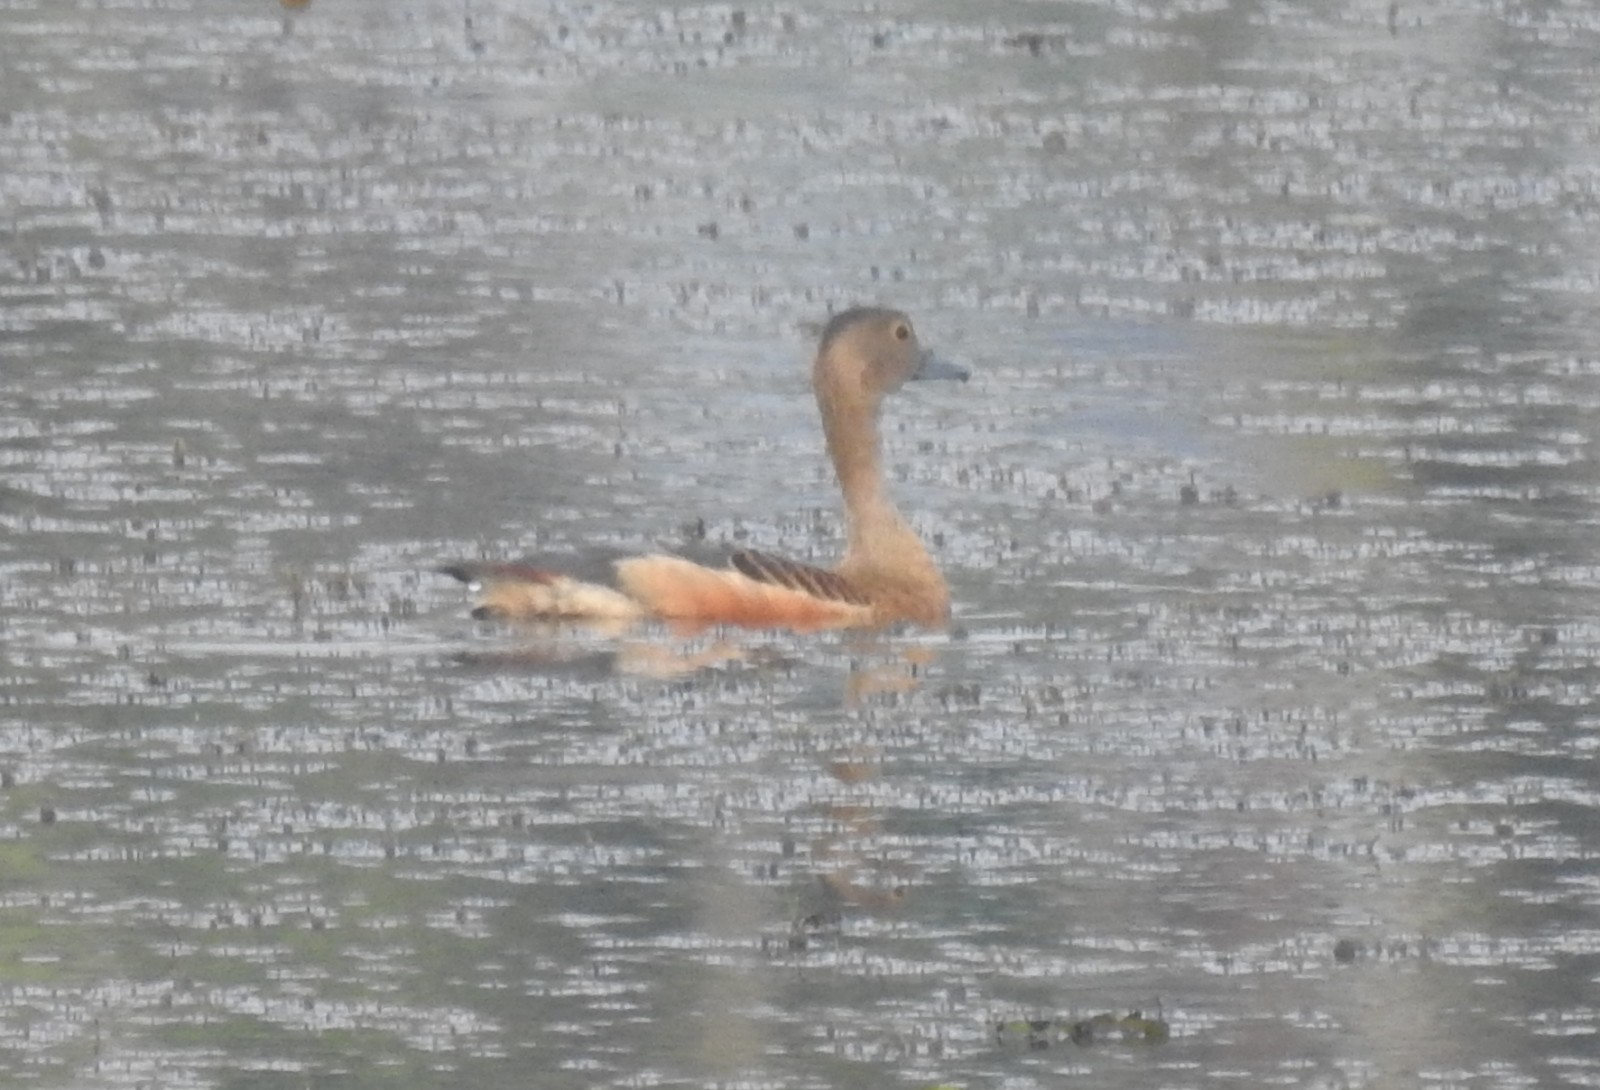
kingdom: Animalia
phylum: Chordata
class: Aves
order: Anseriformes
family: Anatidae
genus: Dendrocygna
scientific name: Dendrocygna javanica
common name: Lesser whistling-duck
